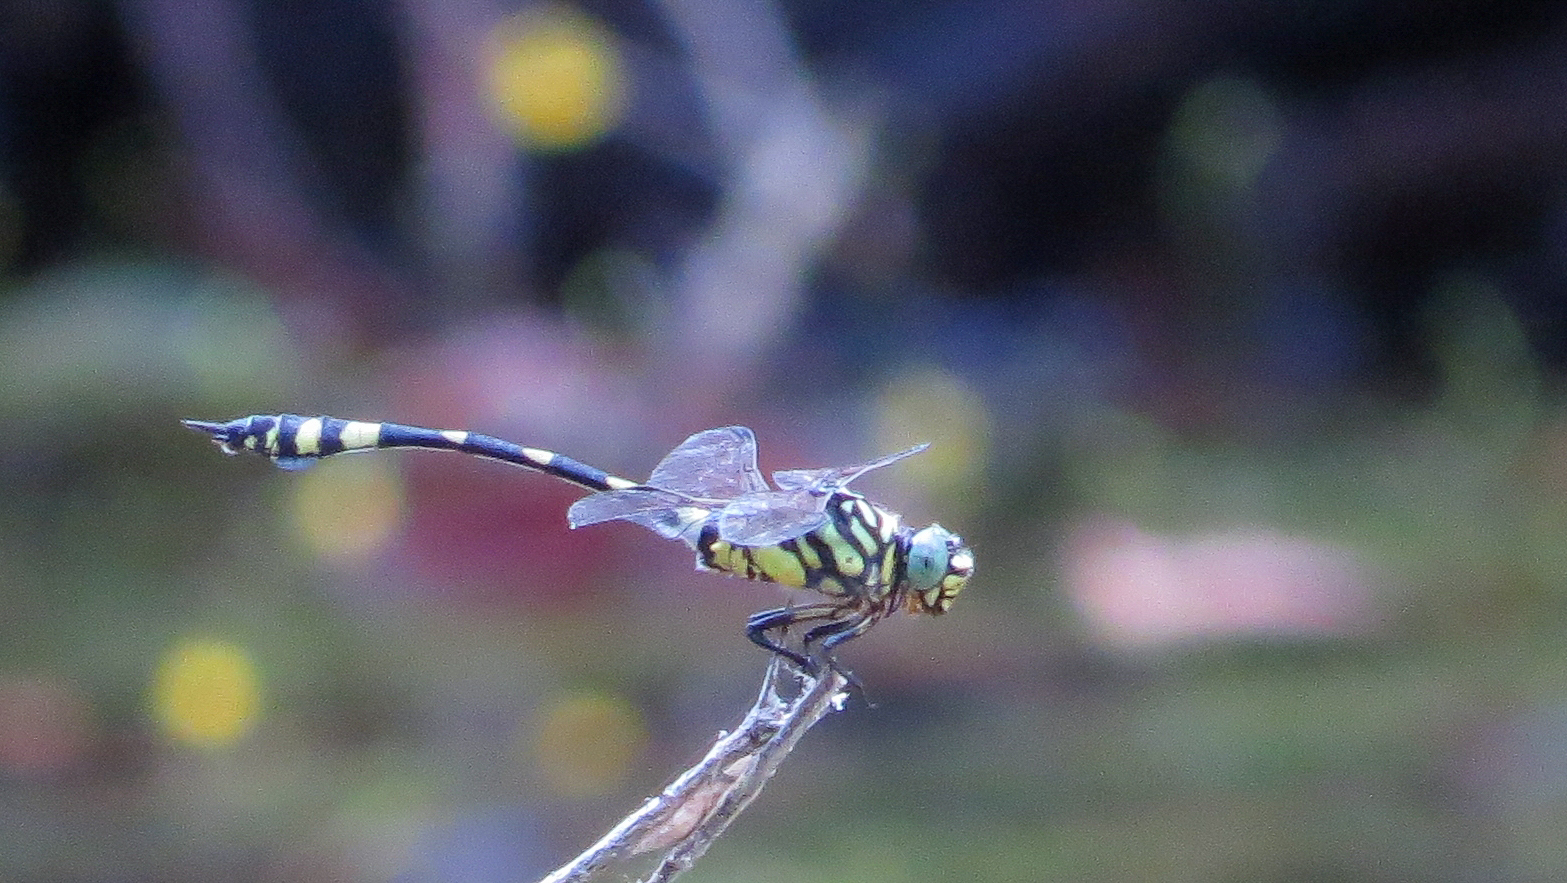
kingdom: Animalia
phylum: Arthropoda
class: Insecta
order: Odonata
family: Gomphidae
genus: Ictinogomphus
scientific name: Ictinogomphus australis
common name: Australian tiger
